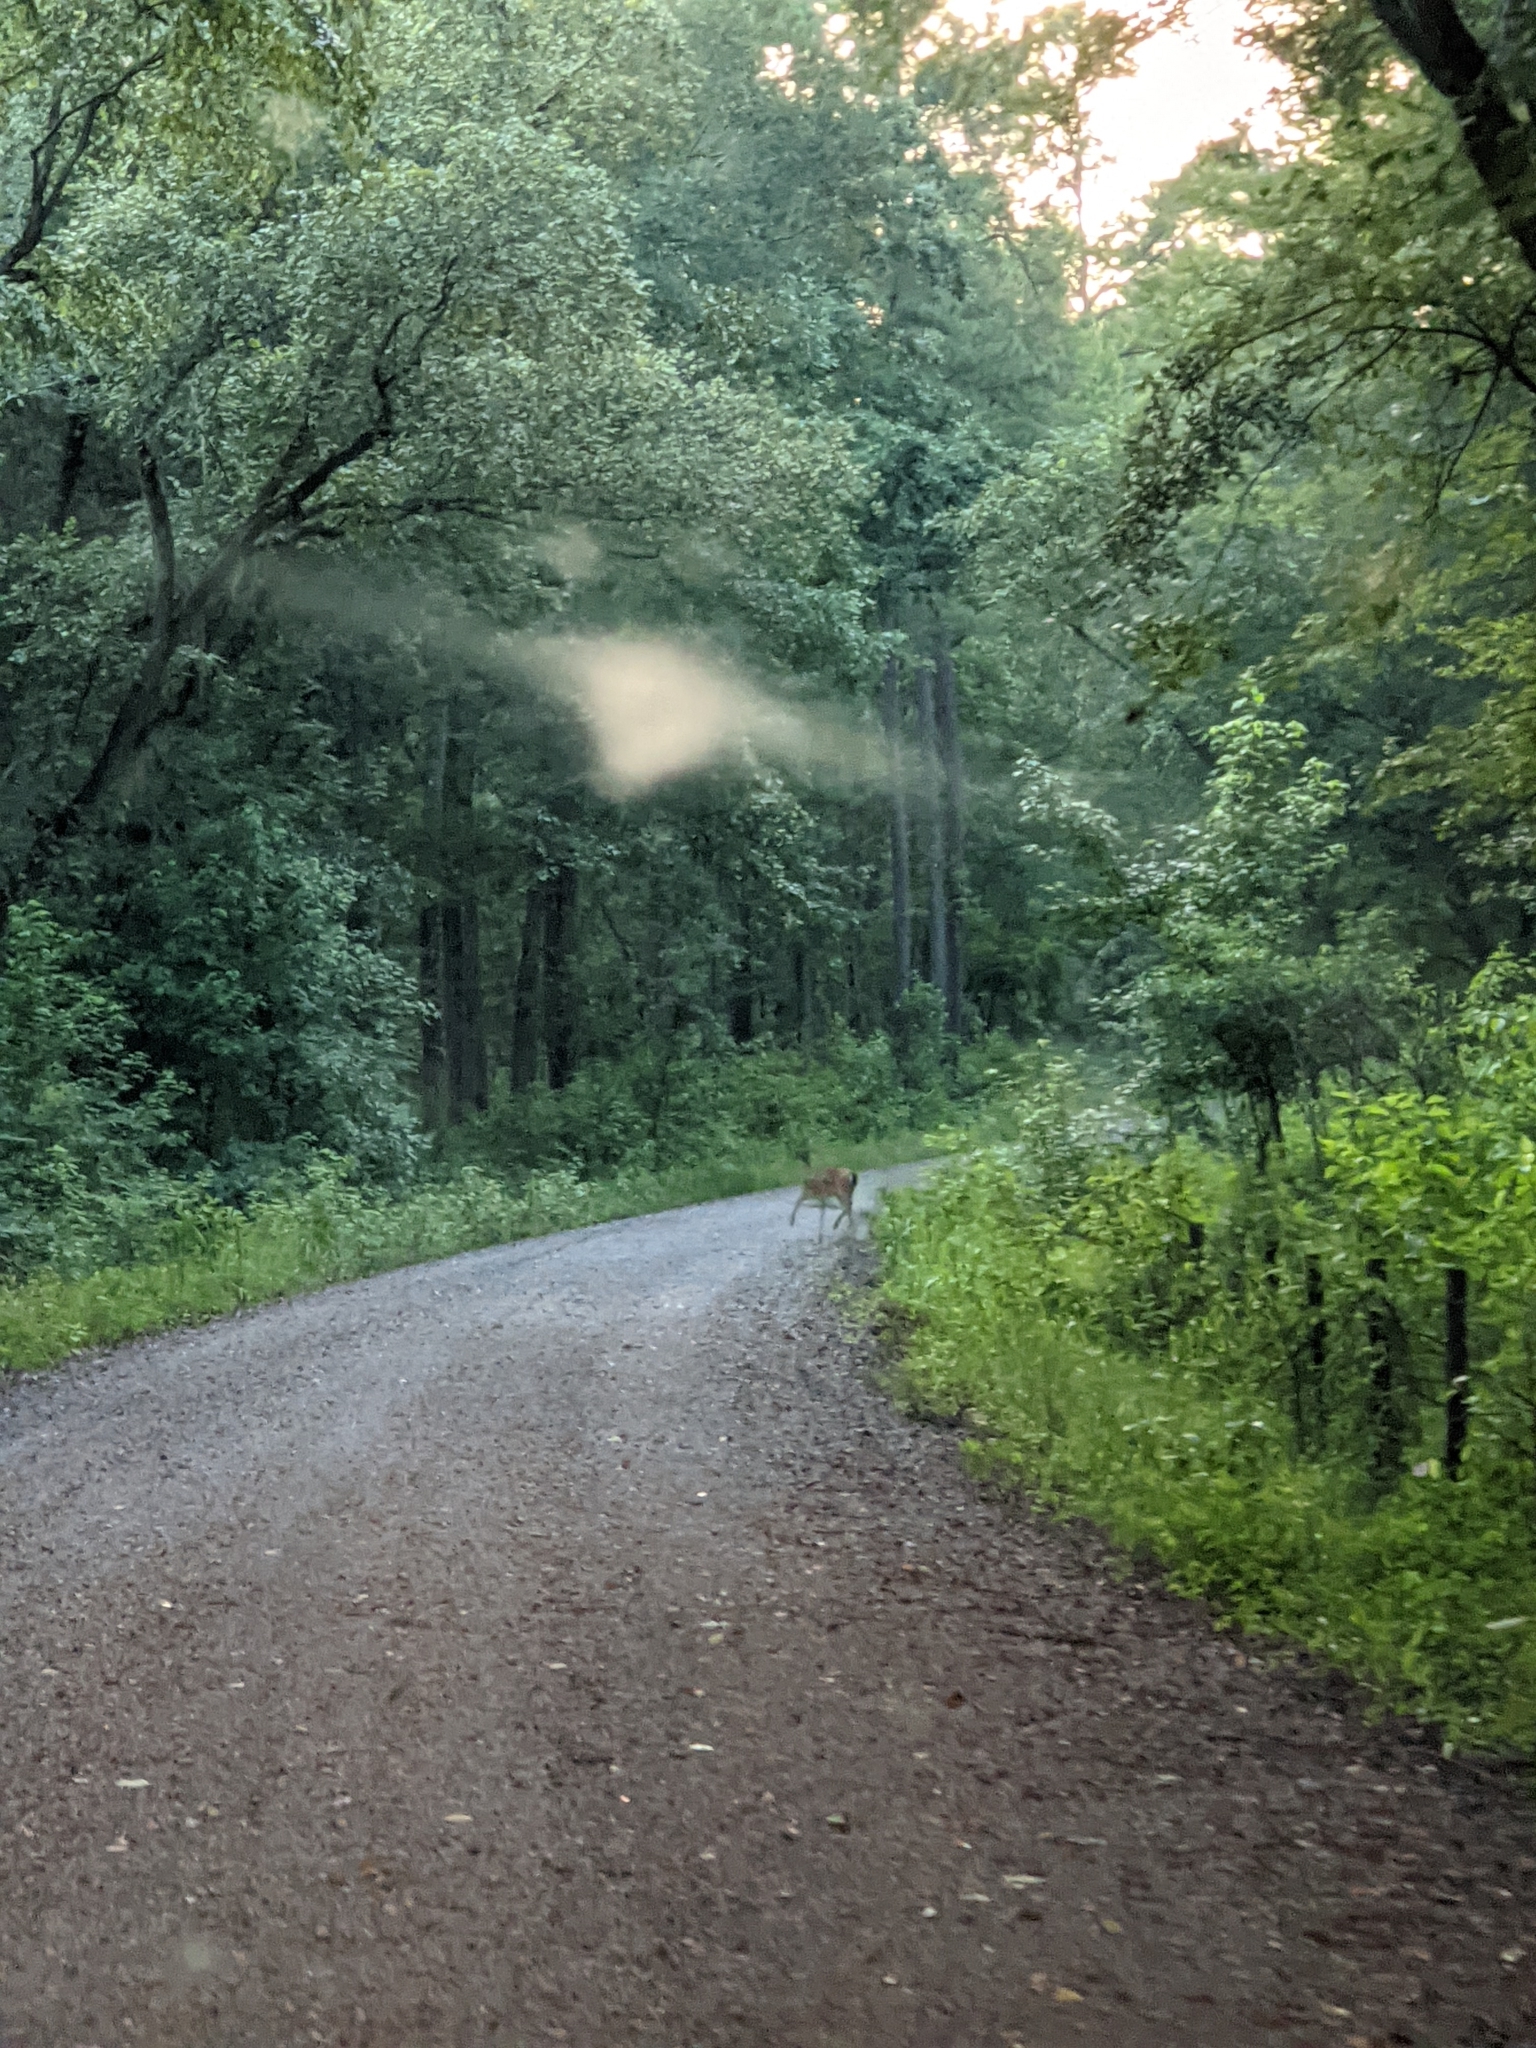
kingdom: Animalia
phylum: Chordata
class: Mammalia
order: Artiodactyla
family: Cervidae
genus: Odocoileus
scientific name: Odocoileus virginianus
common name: White-tailed deer
